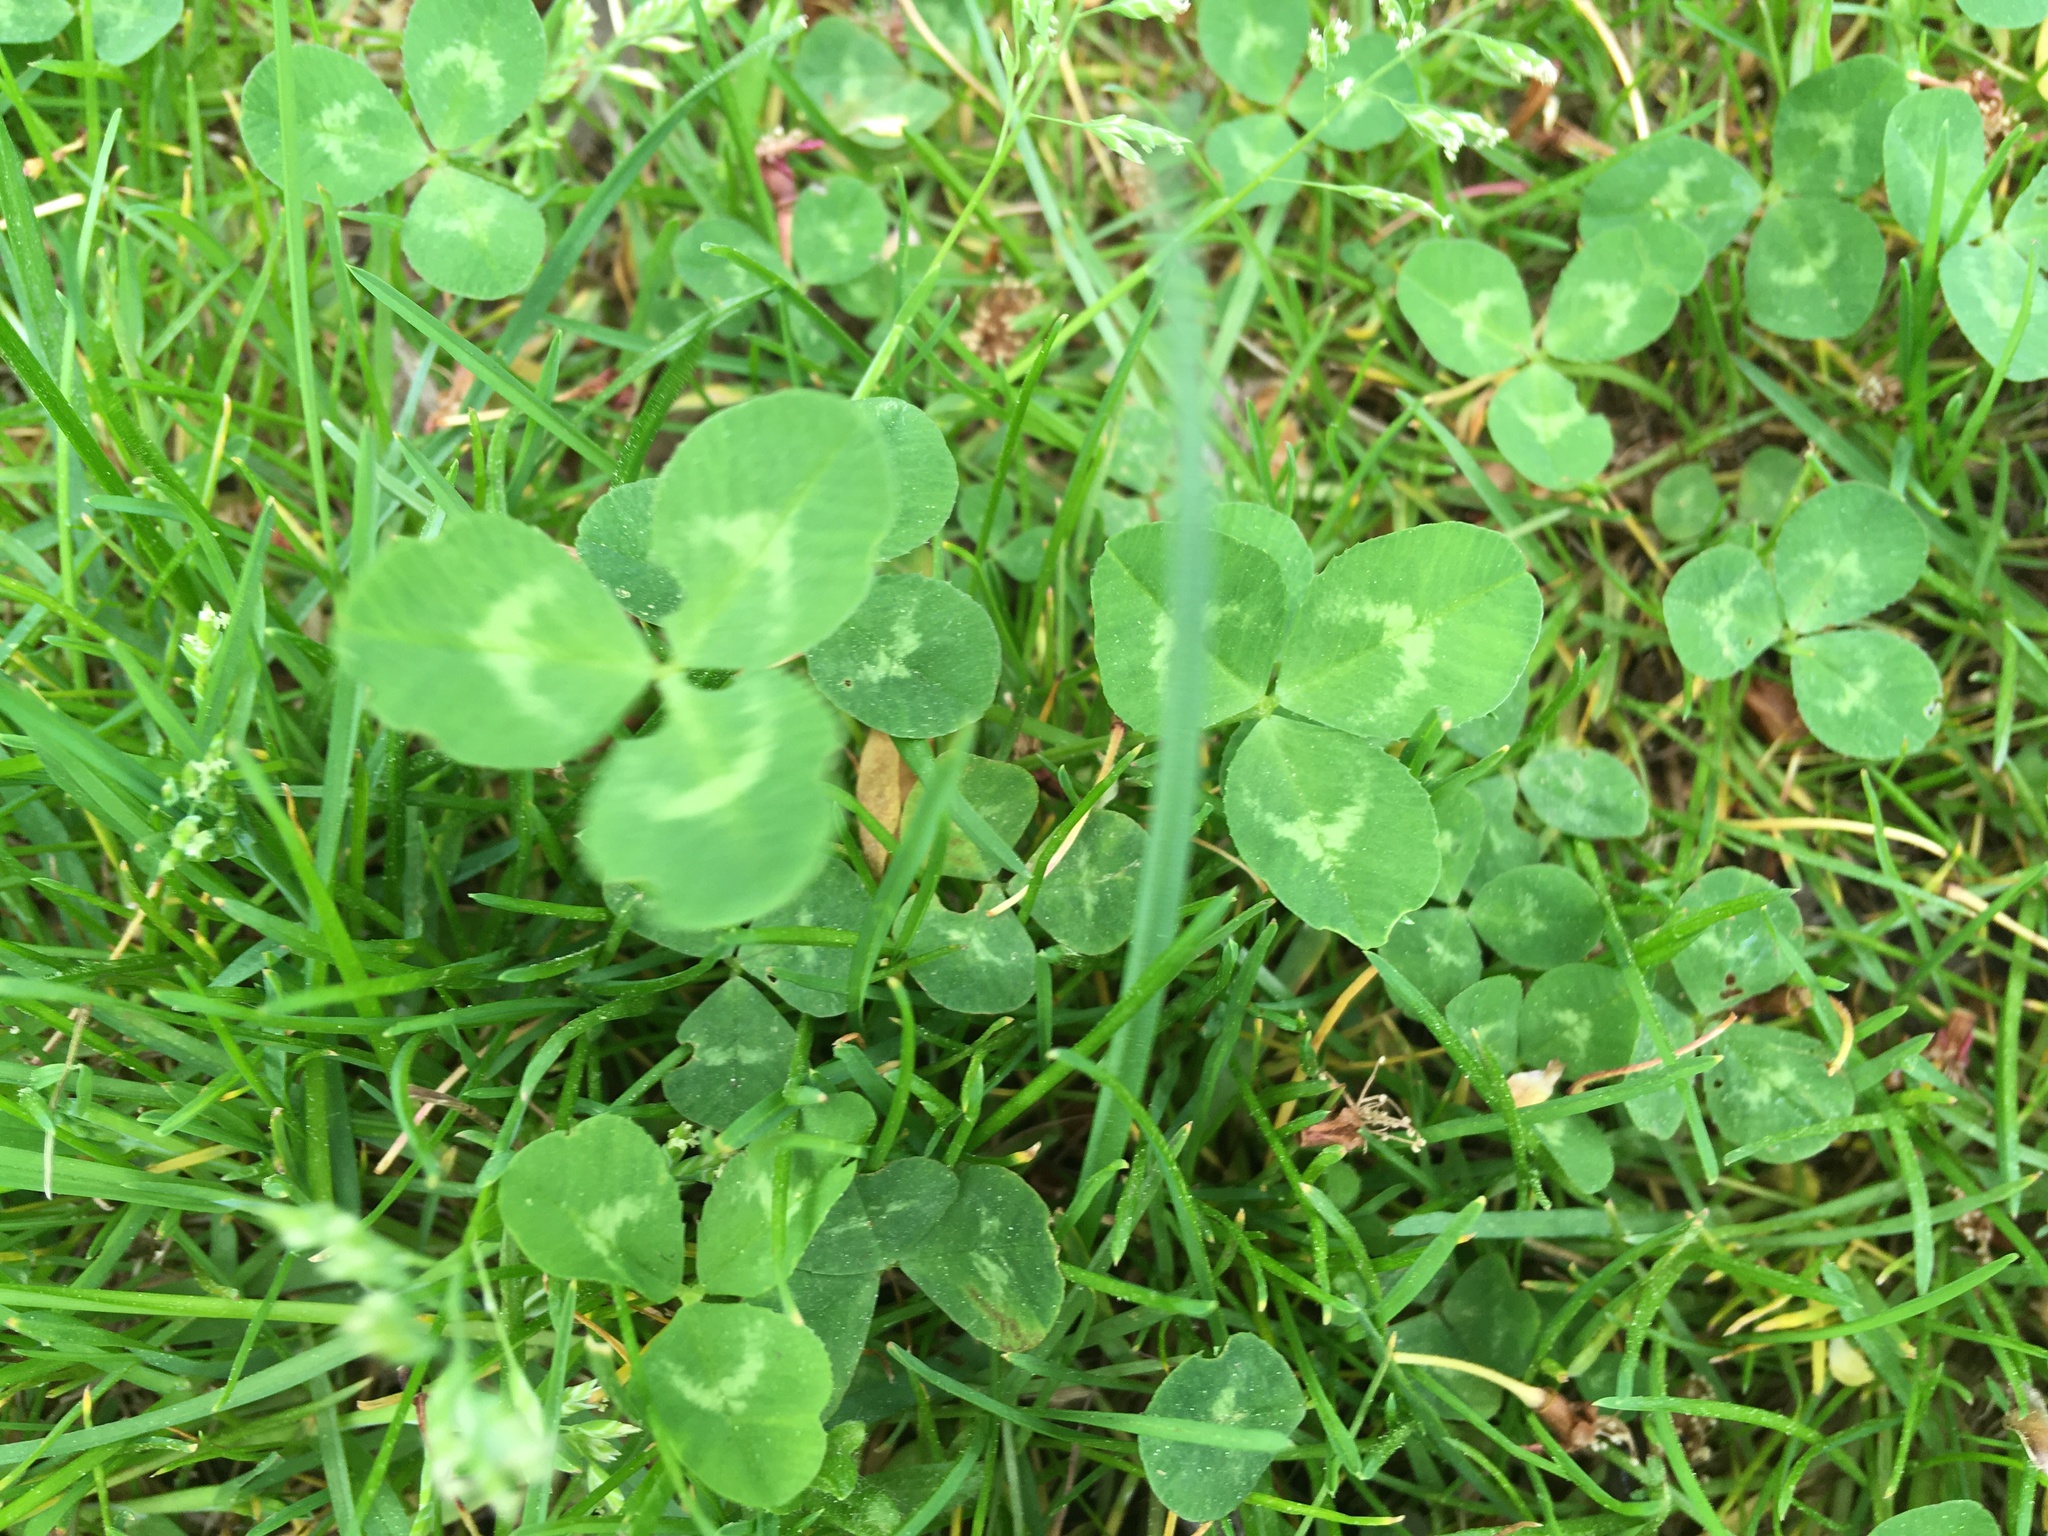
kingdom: Plantae
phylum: Tracheophyta
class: Magnoliopsida
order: Fabales
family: Fabaceae
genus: Trifolium
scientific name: Trifolium repens
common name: White clover
